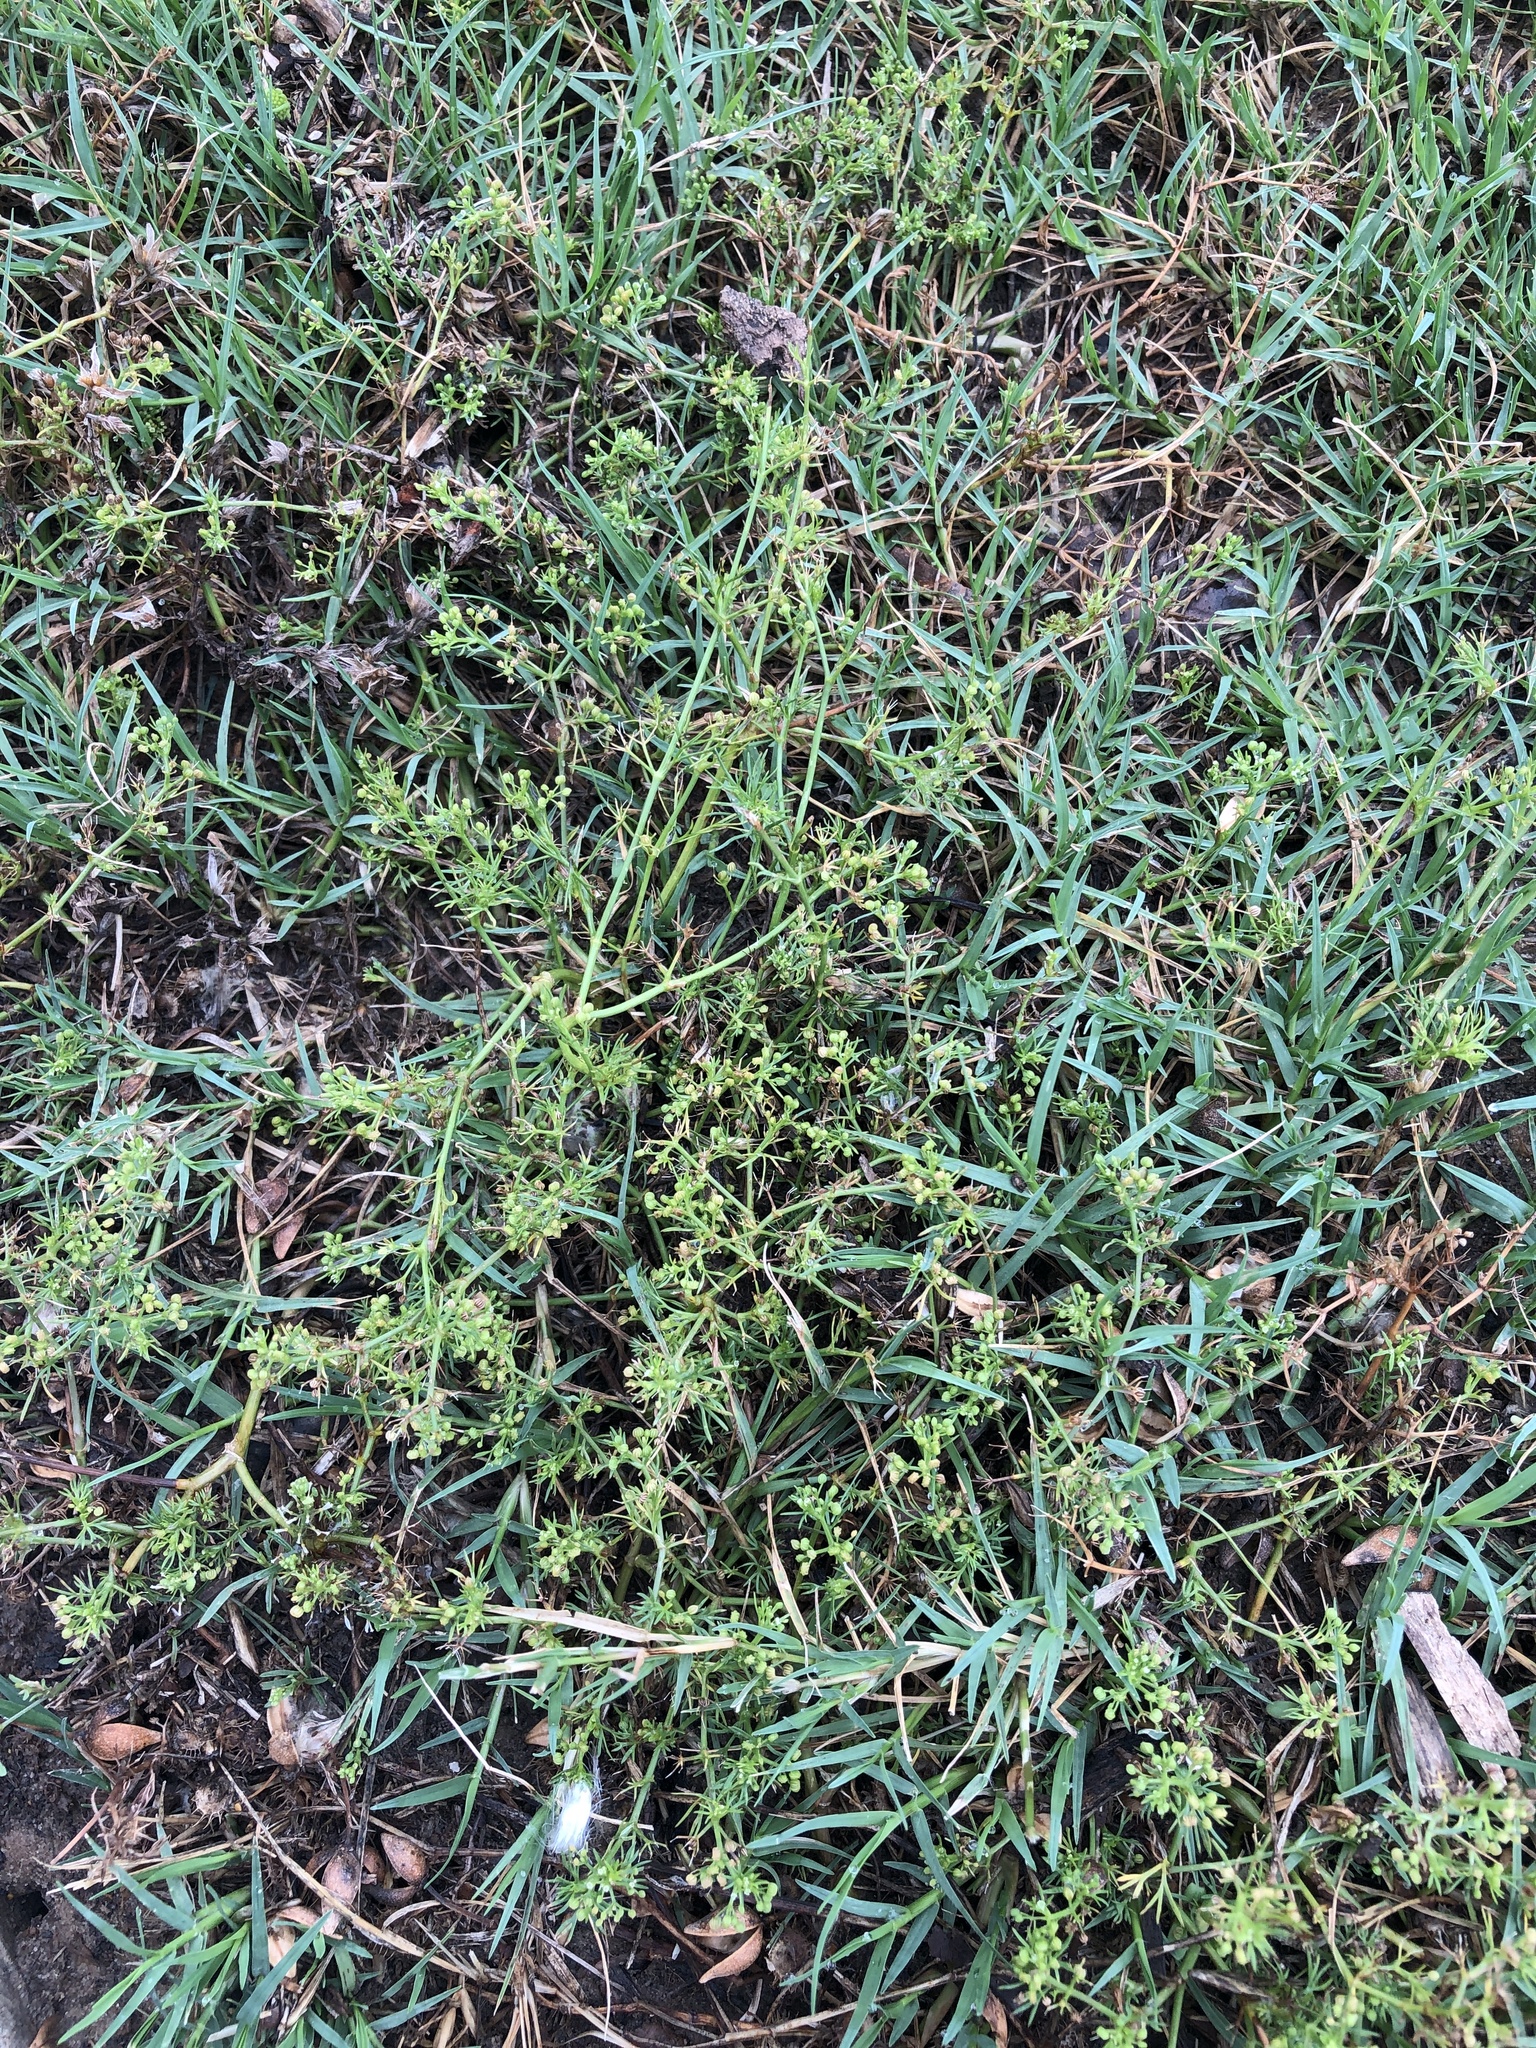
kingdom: Plantae
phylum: Tracheophyta
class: Magnoliopsida
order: Apiales
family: Apiaceae
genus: Cyclospermum
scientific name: Cyclospermum leptophyllum
